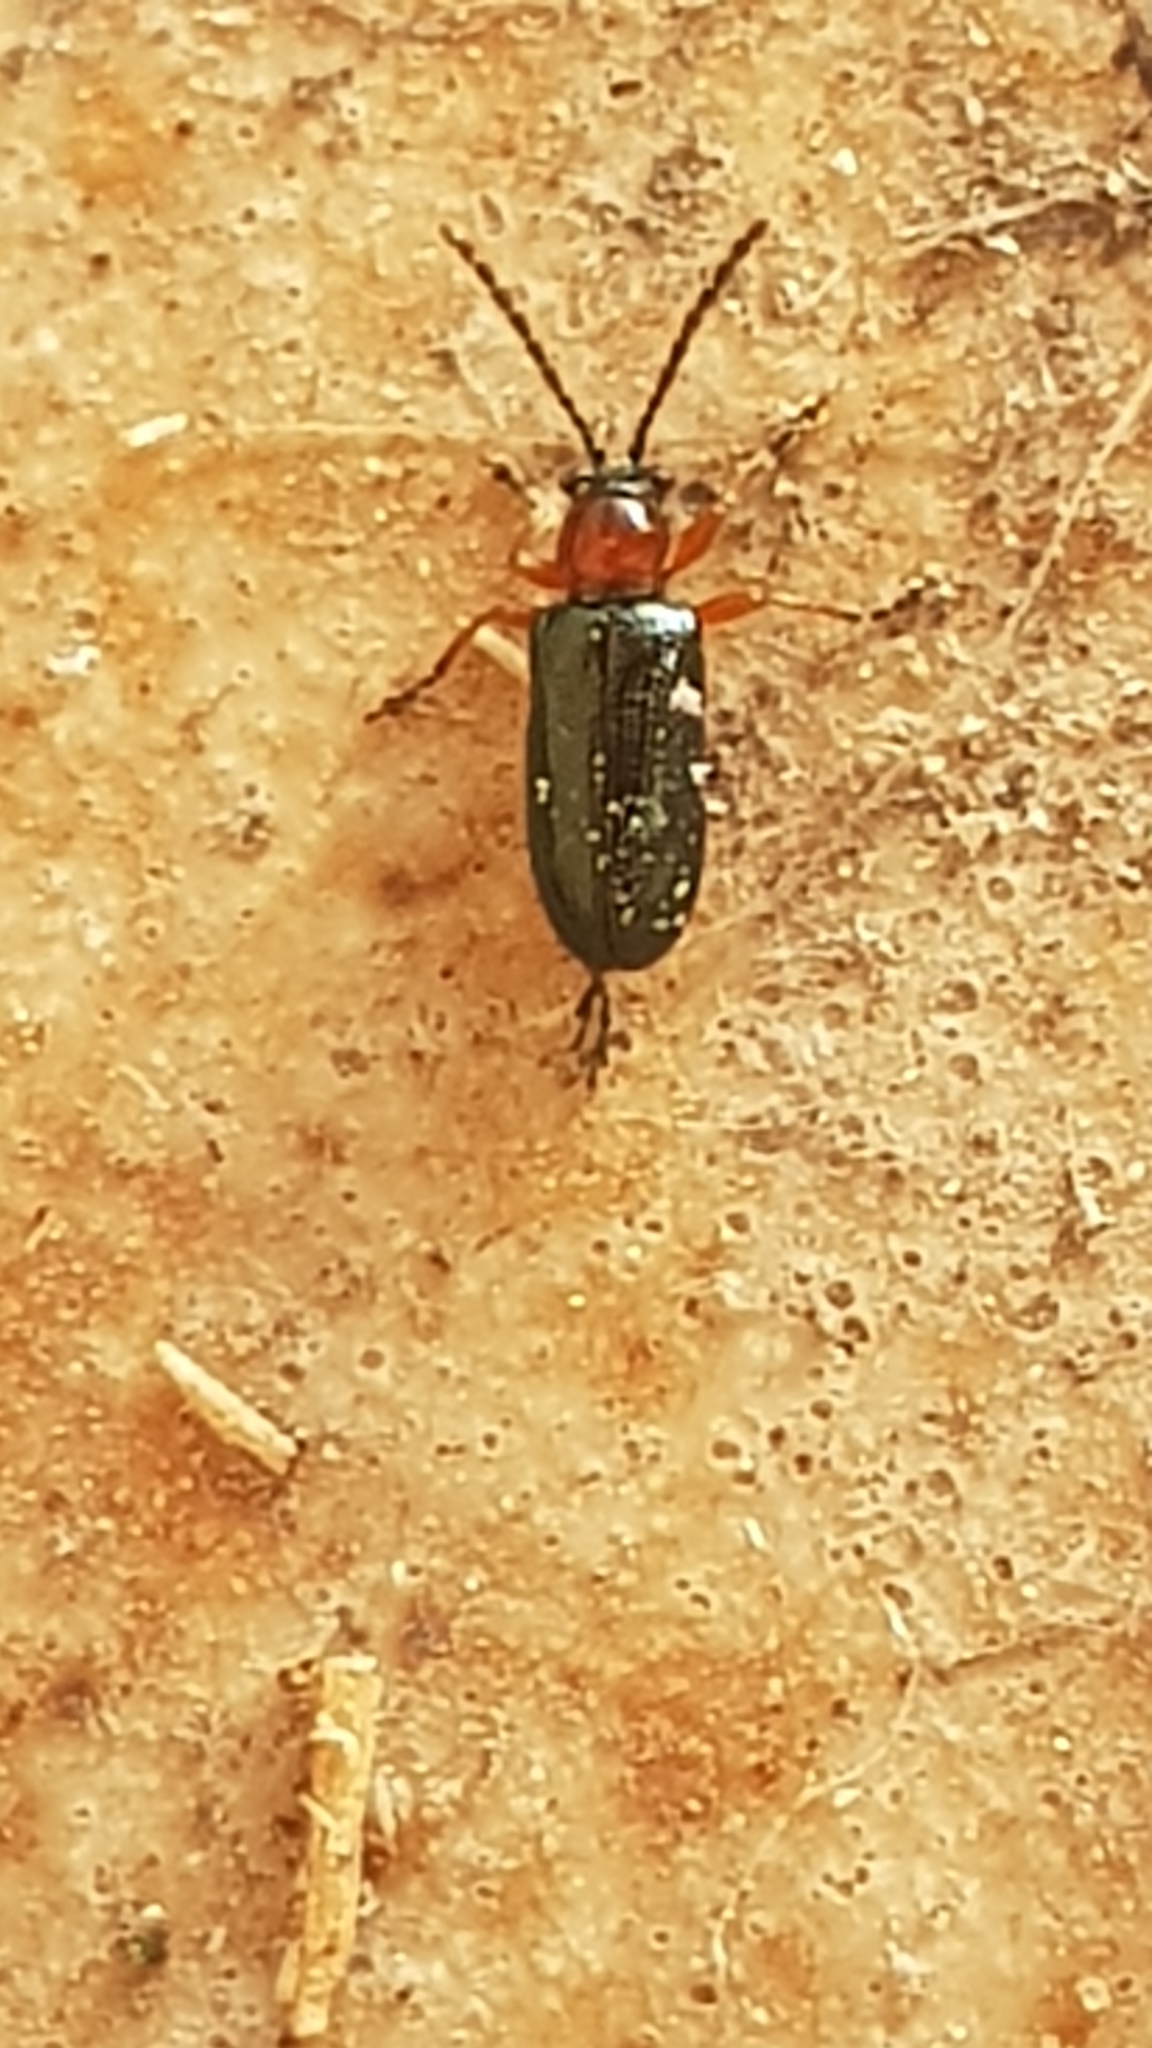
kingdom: Animalia
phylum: Arthropoda
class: Insecta
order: Coleoptera
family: Chrysomelidae
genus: Oulema
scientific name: Oulema
